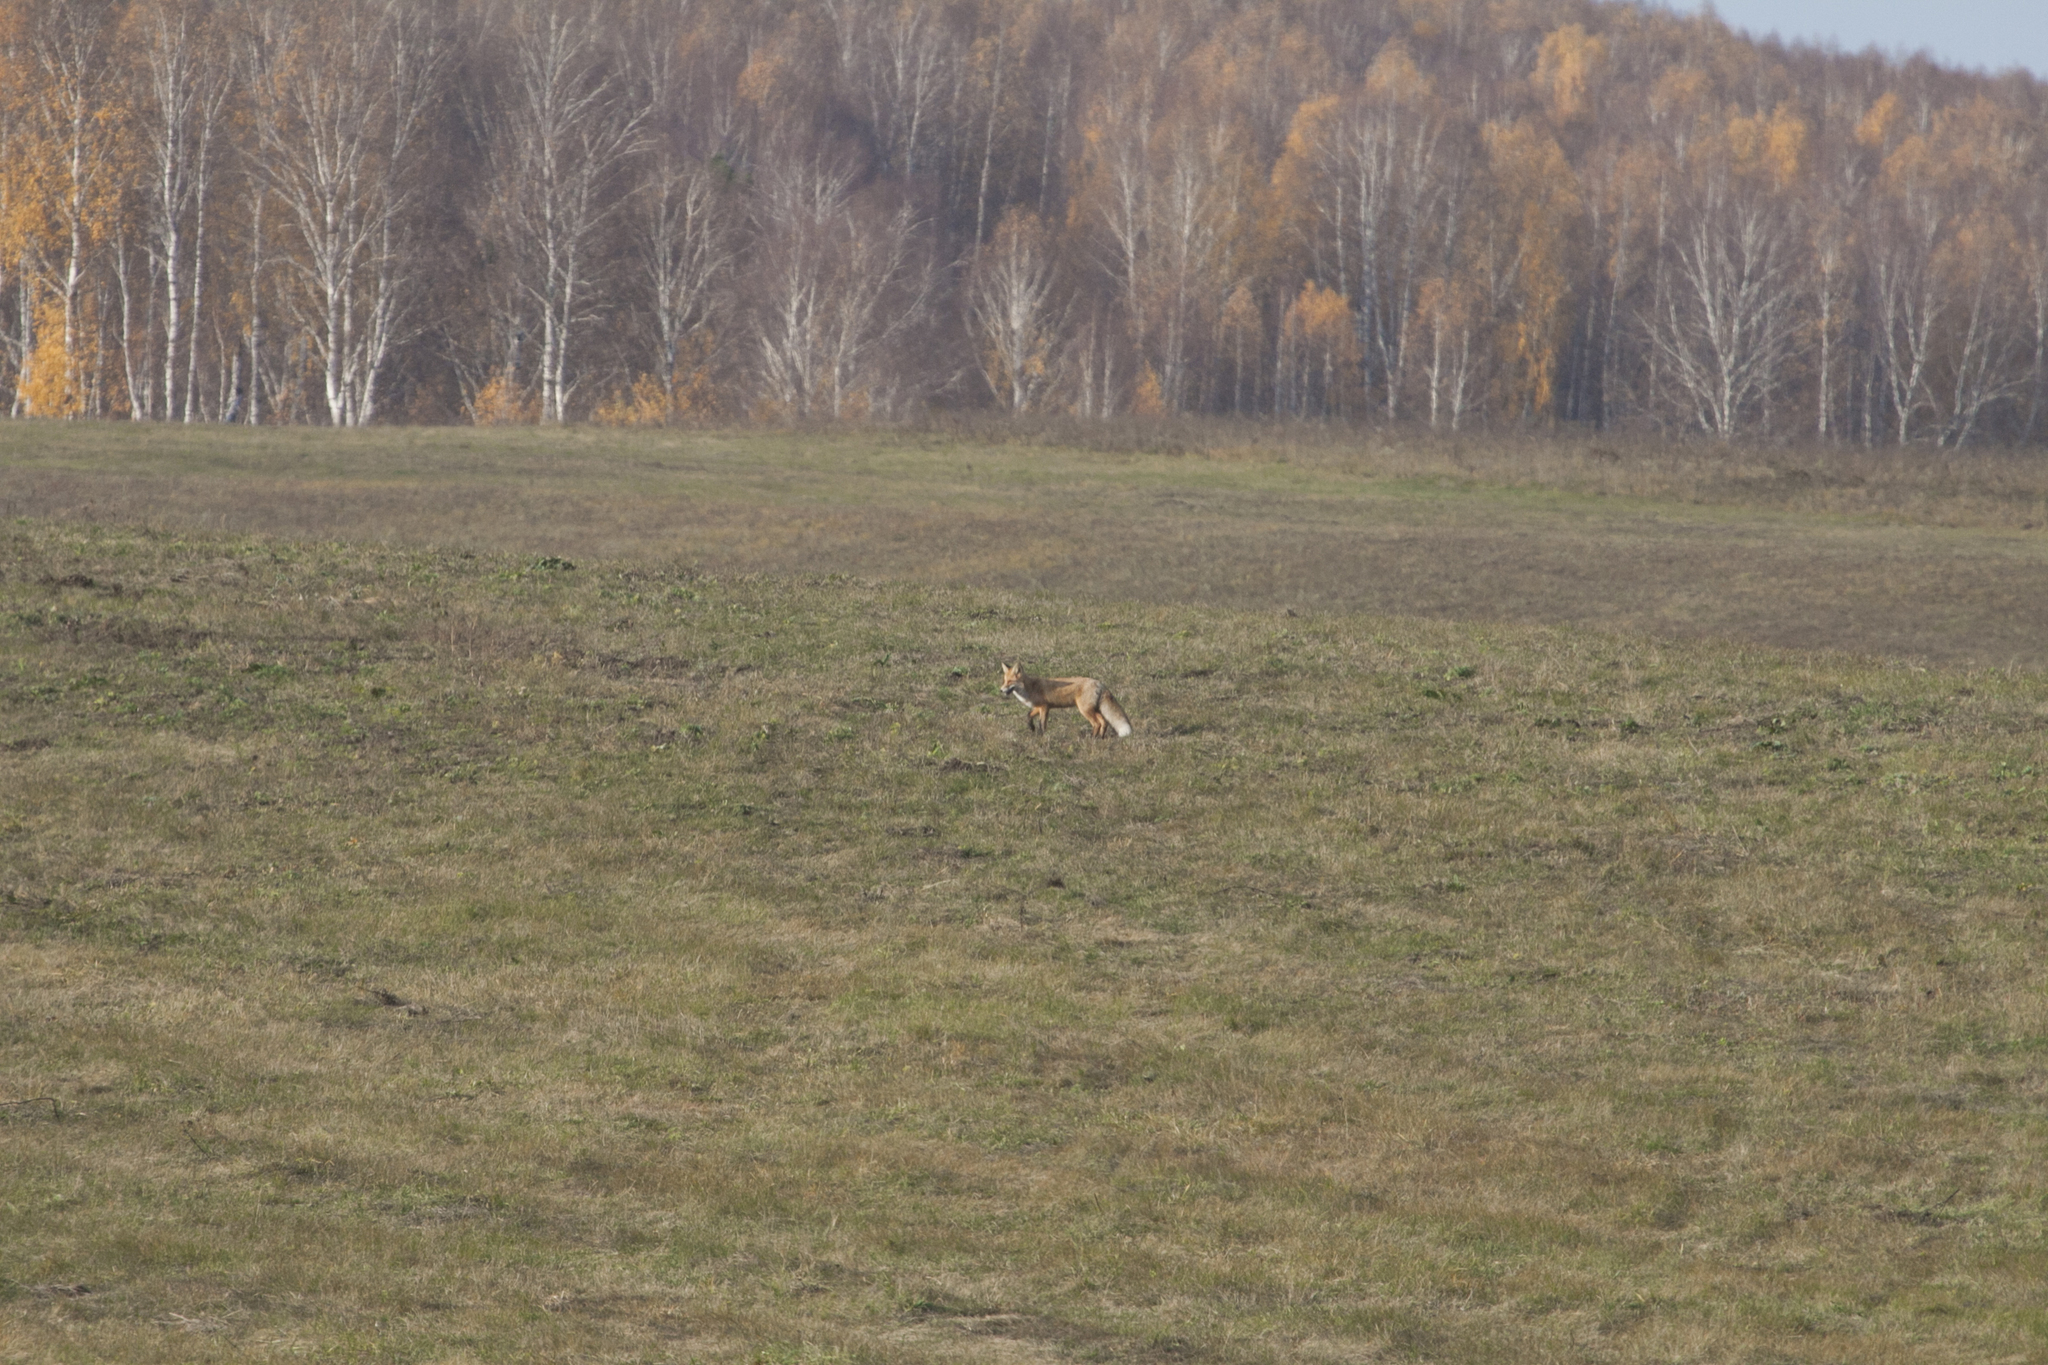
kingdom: Animalia
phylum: Chordata
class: Mammalia
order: Carnivora
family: Canidae
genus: Vulpes
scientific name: Vulpes vulpes
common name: Red fox
